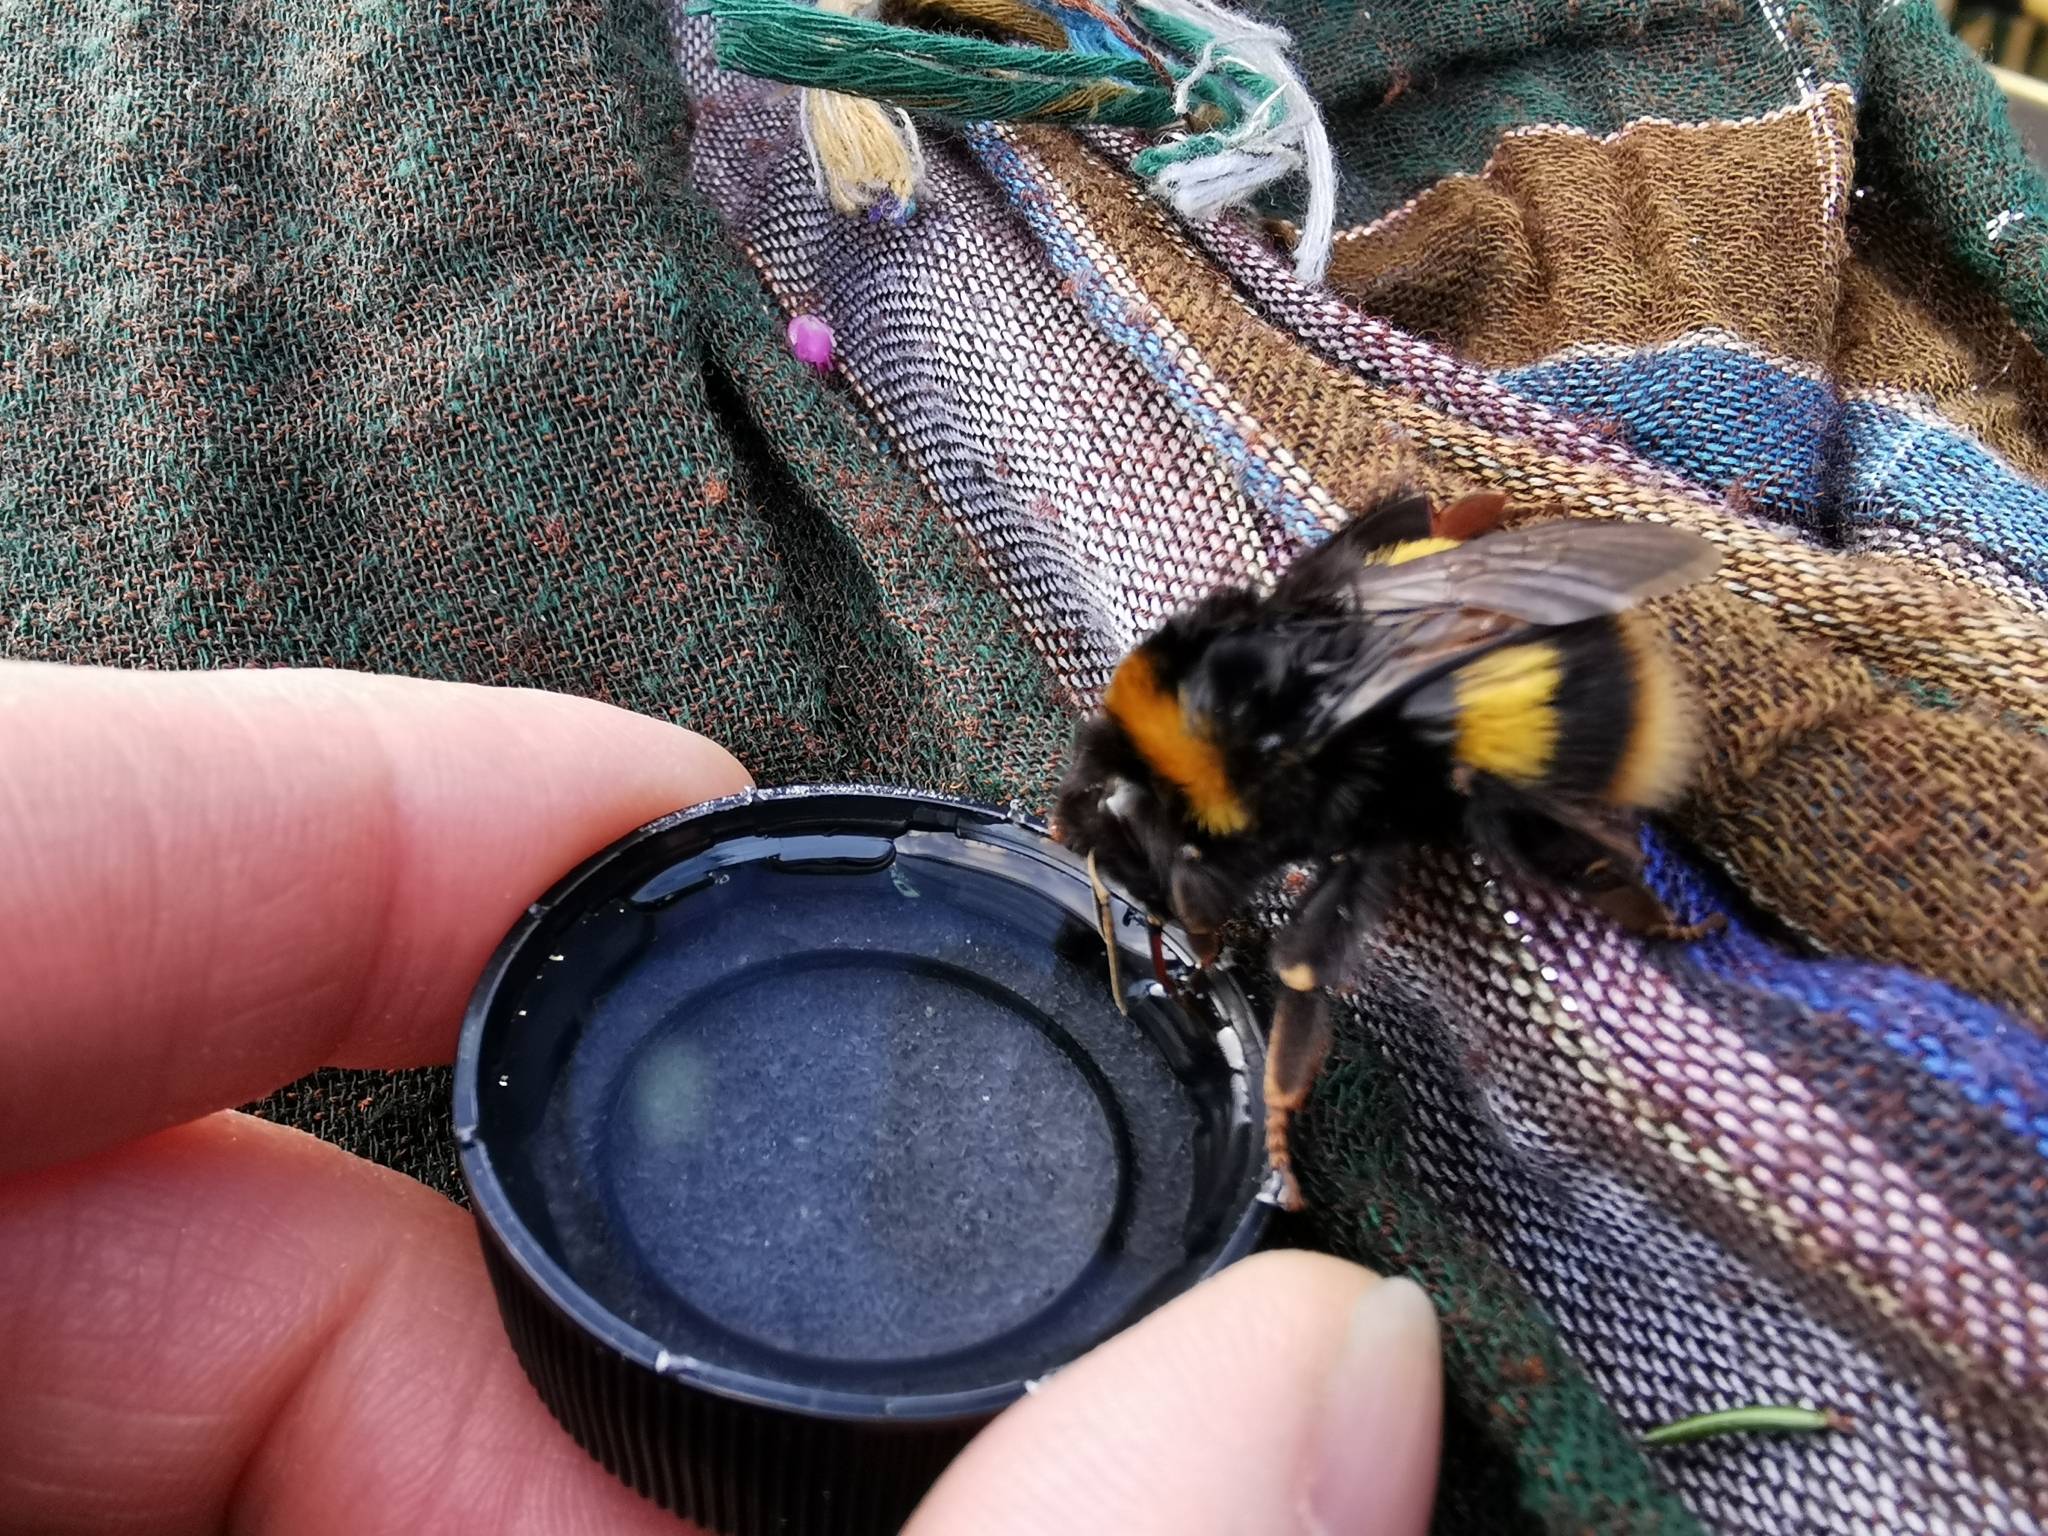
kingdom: Animalia
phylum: Arthropoda
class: Insecta
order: Hymenoptera
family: Apidae
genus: Bombus
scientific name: Bombus terrestris
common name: Buff-tailed bumblebee
